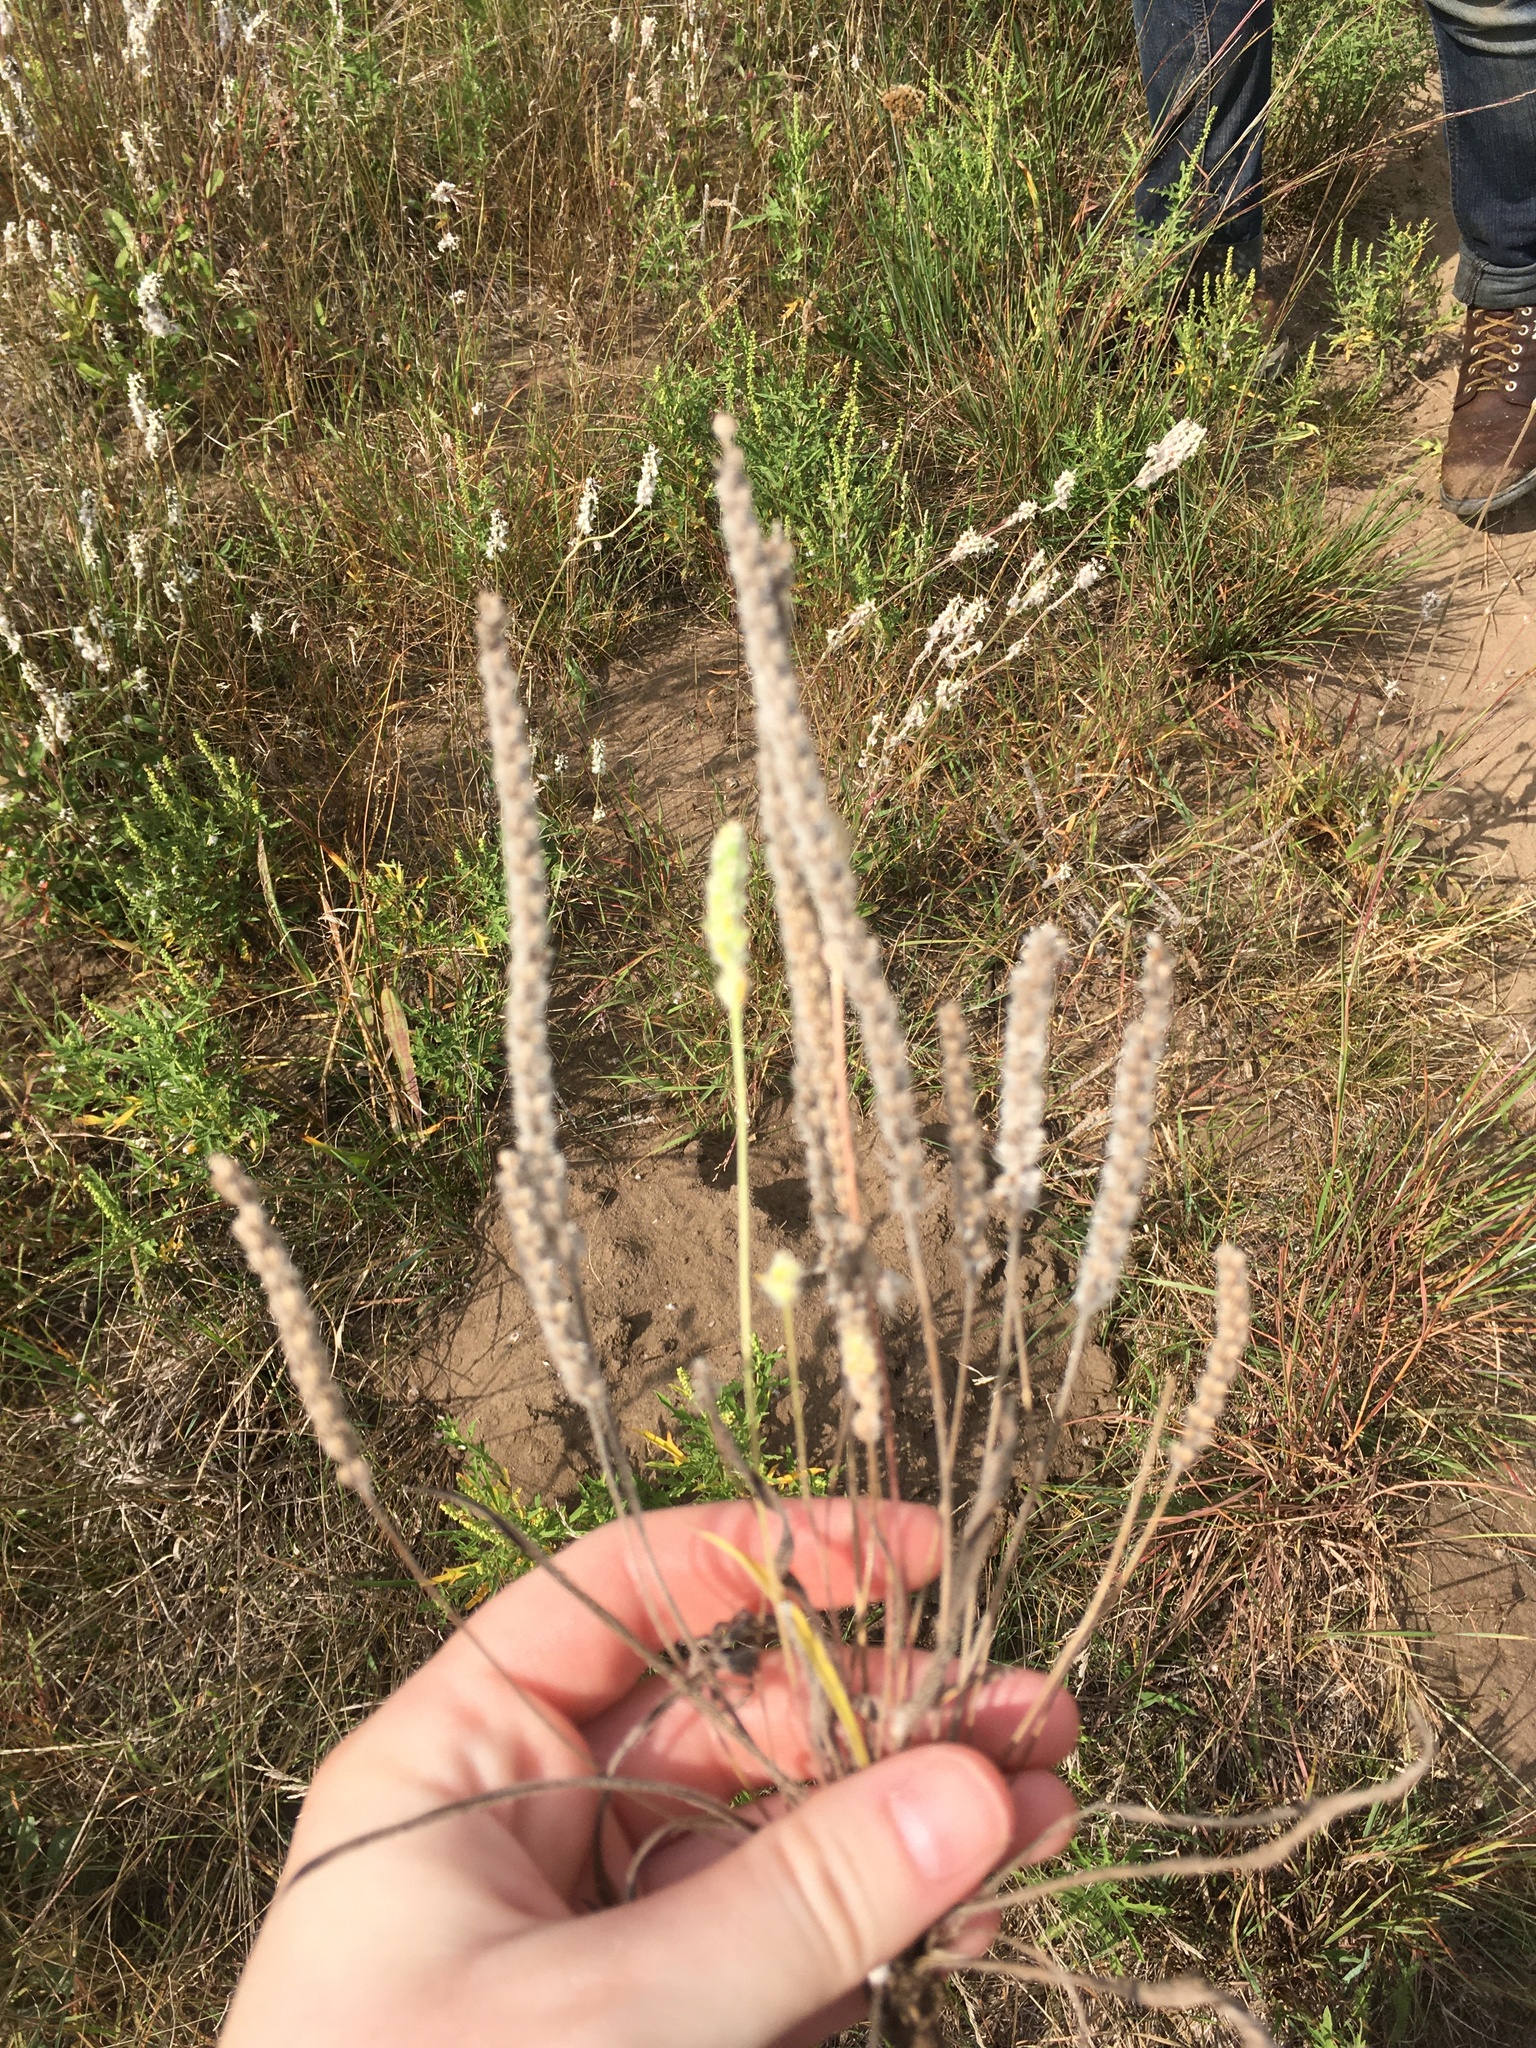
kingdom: Plantae
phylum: Tracheophyta
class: Magnoliopsida
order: Lamiales
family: Plantaginaceae
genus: Plantago
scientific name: Plantago patagonica
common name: Patagonia indian-wheat
